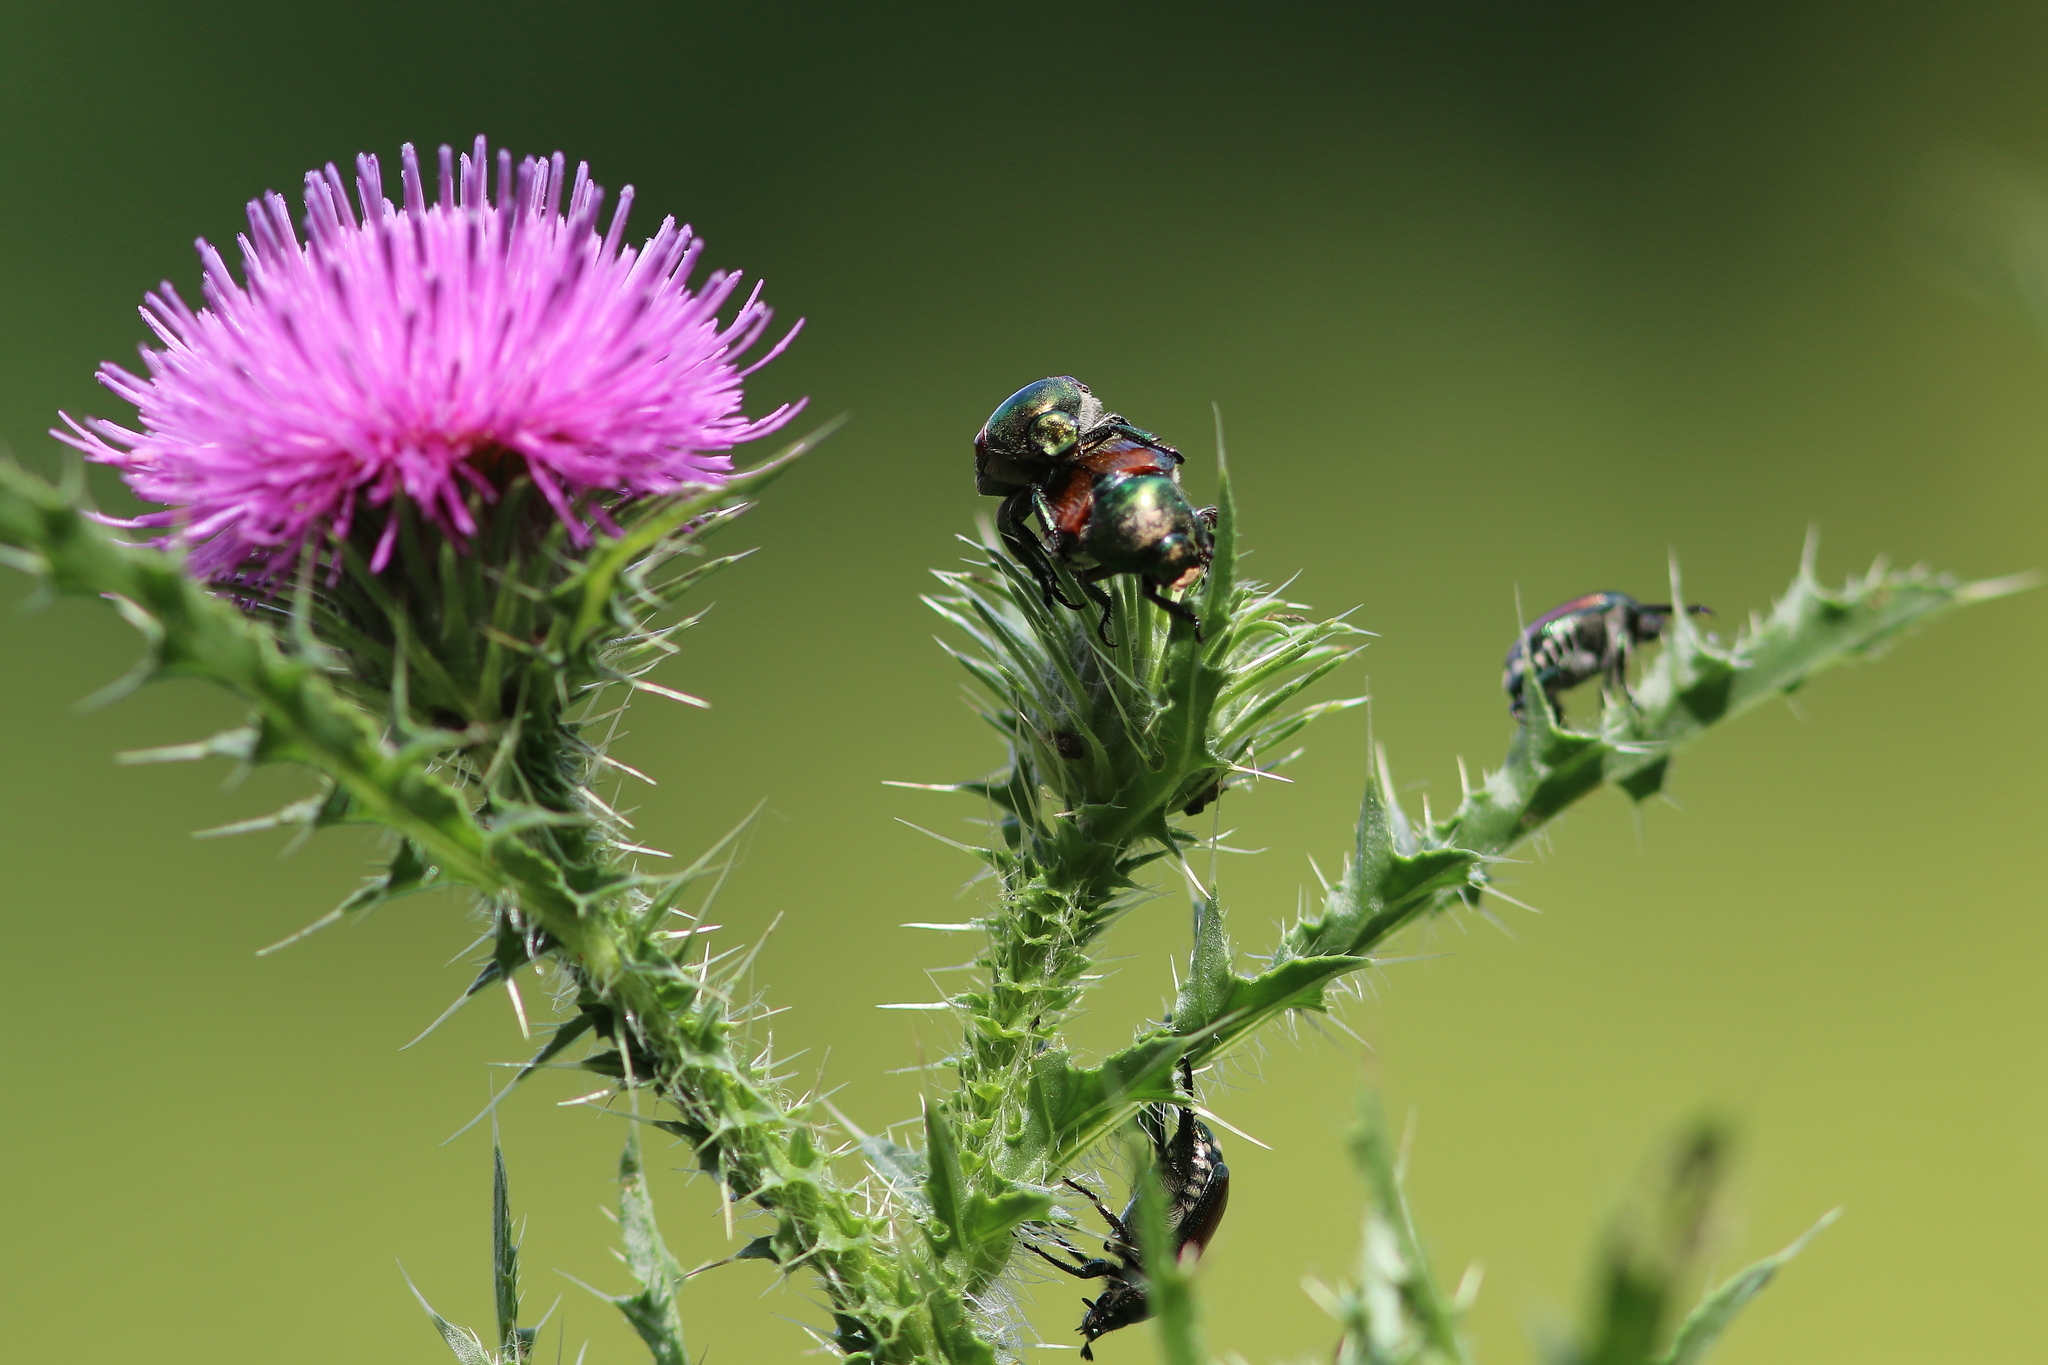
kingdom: Animalia
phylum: Arthropoda
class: Insecta
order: Coleoptera
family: Scarabaeidae
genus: Popillia
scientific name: Popillia japonica
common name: Japanese beetle
